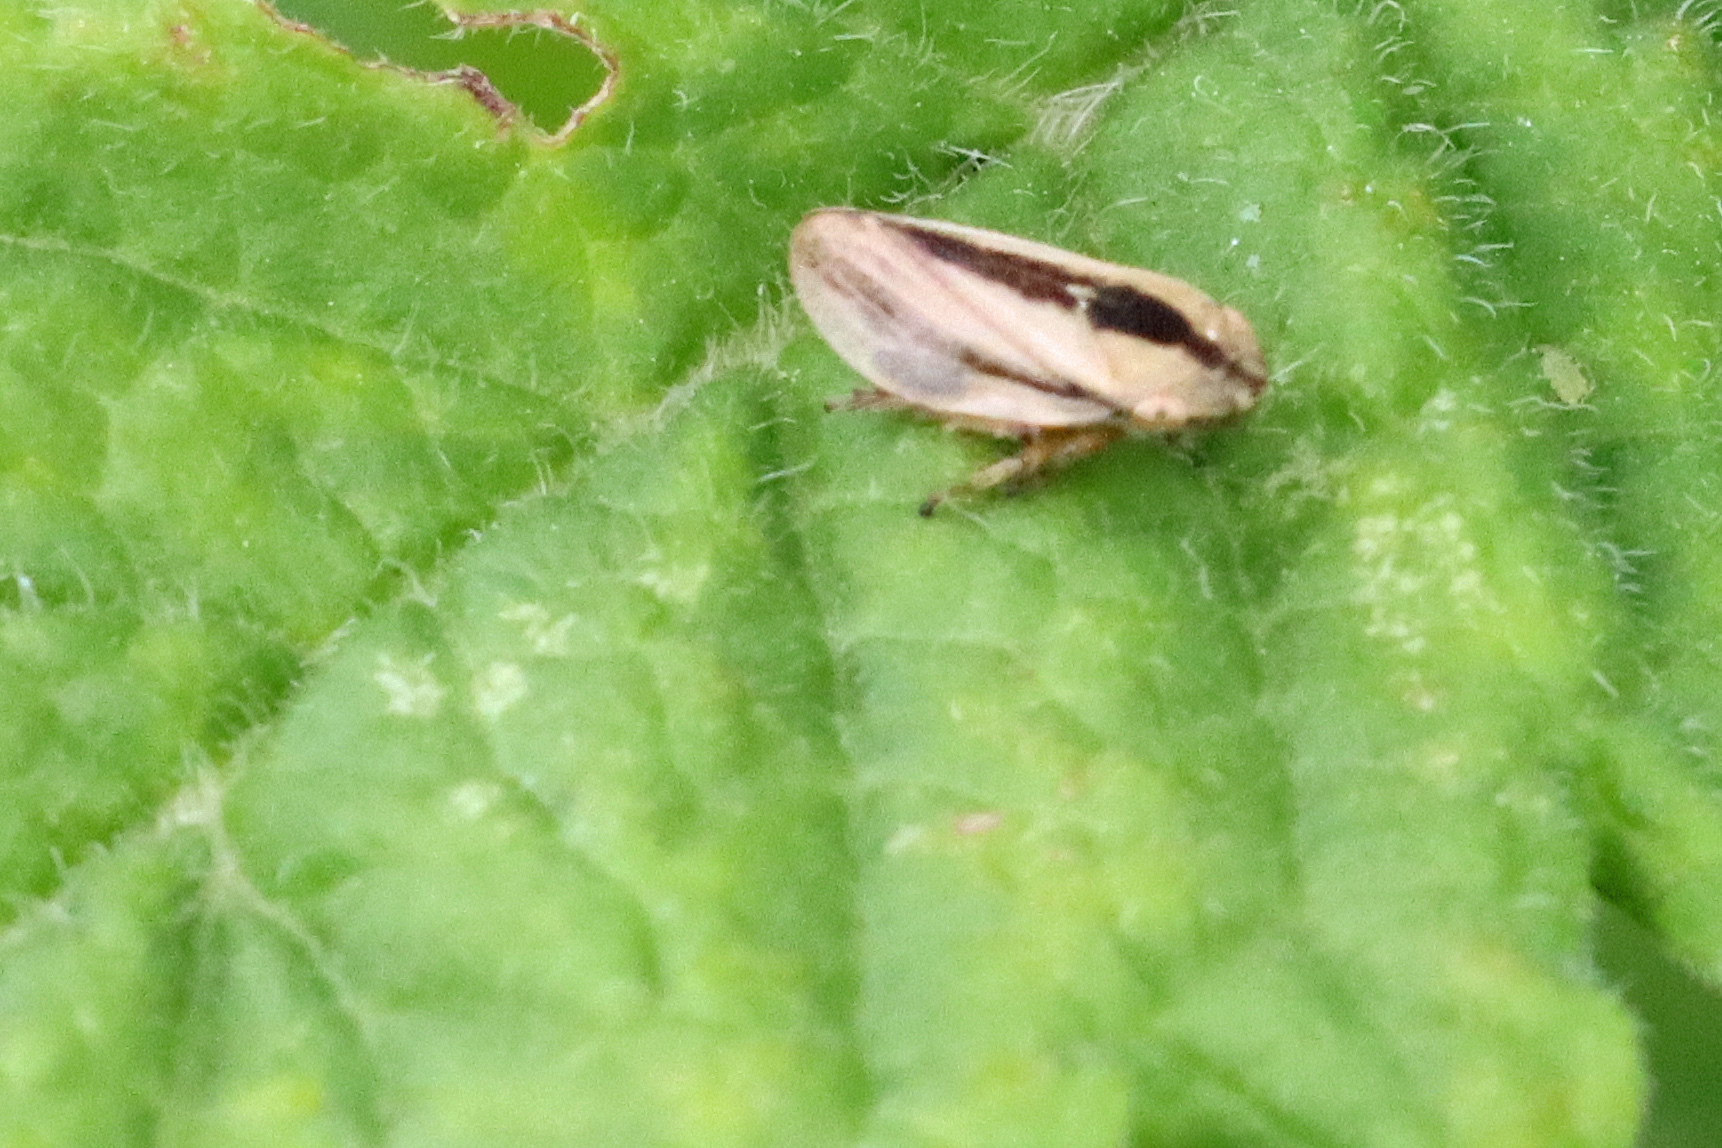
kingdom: Animalia
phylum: Arthropoda
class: Insecta
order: Hemiptera
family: Aphrophoridae
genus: Philaenus
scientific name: Philaenus spumarius
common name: Meadow spittlebug
